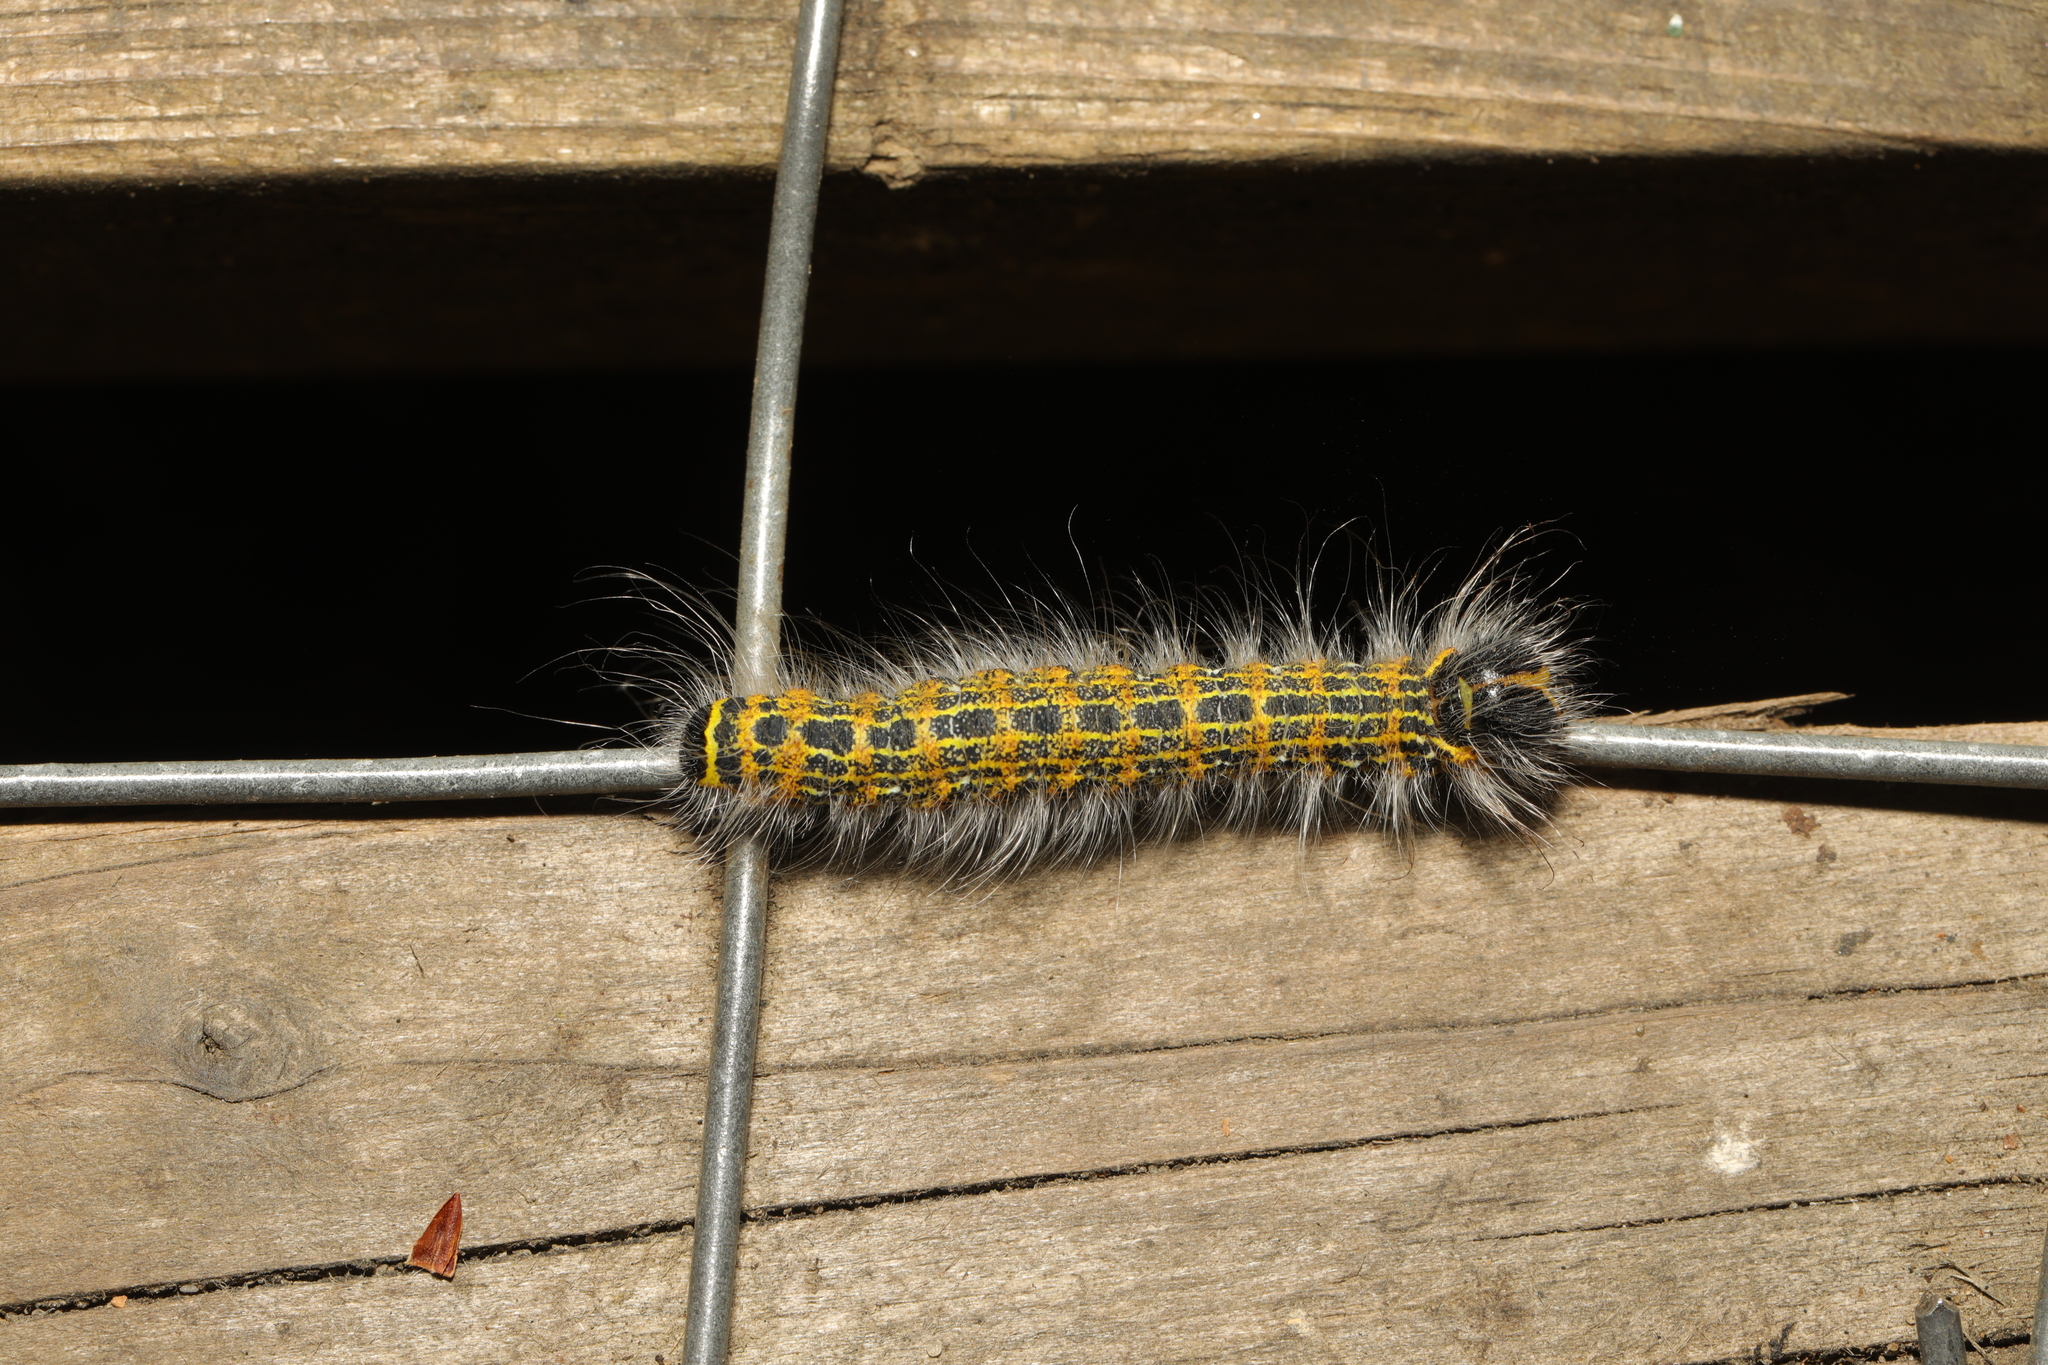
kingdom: Animalia
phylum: Arthropoda
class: Insecta
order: Lepidoptera
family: Notodontidae
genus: Phalera
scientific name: Phalera bucephala
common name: Buff-tip
